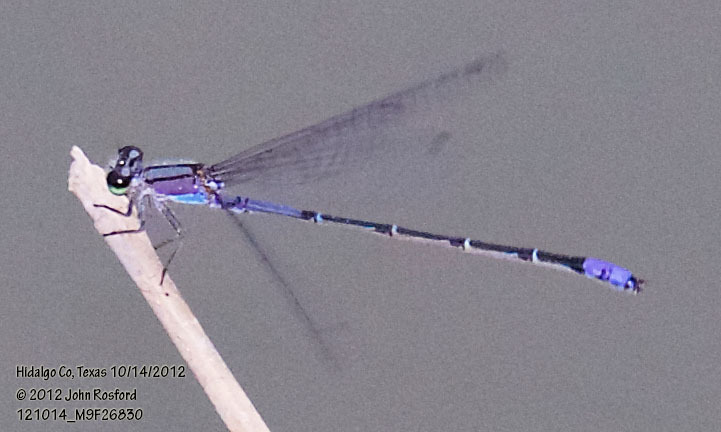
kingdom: Animalia
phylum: Arthropoda
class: Insecta
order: Odonata
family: Coenagrionidae
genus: Enallagma
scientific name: Enallagma novaehispaniae
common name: Neotropical bluet
